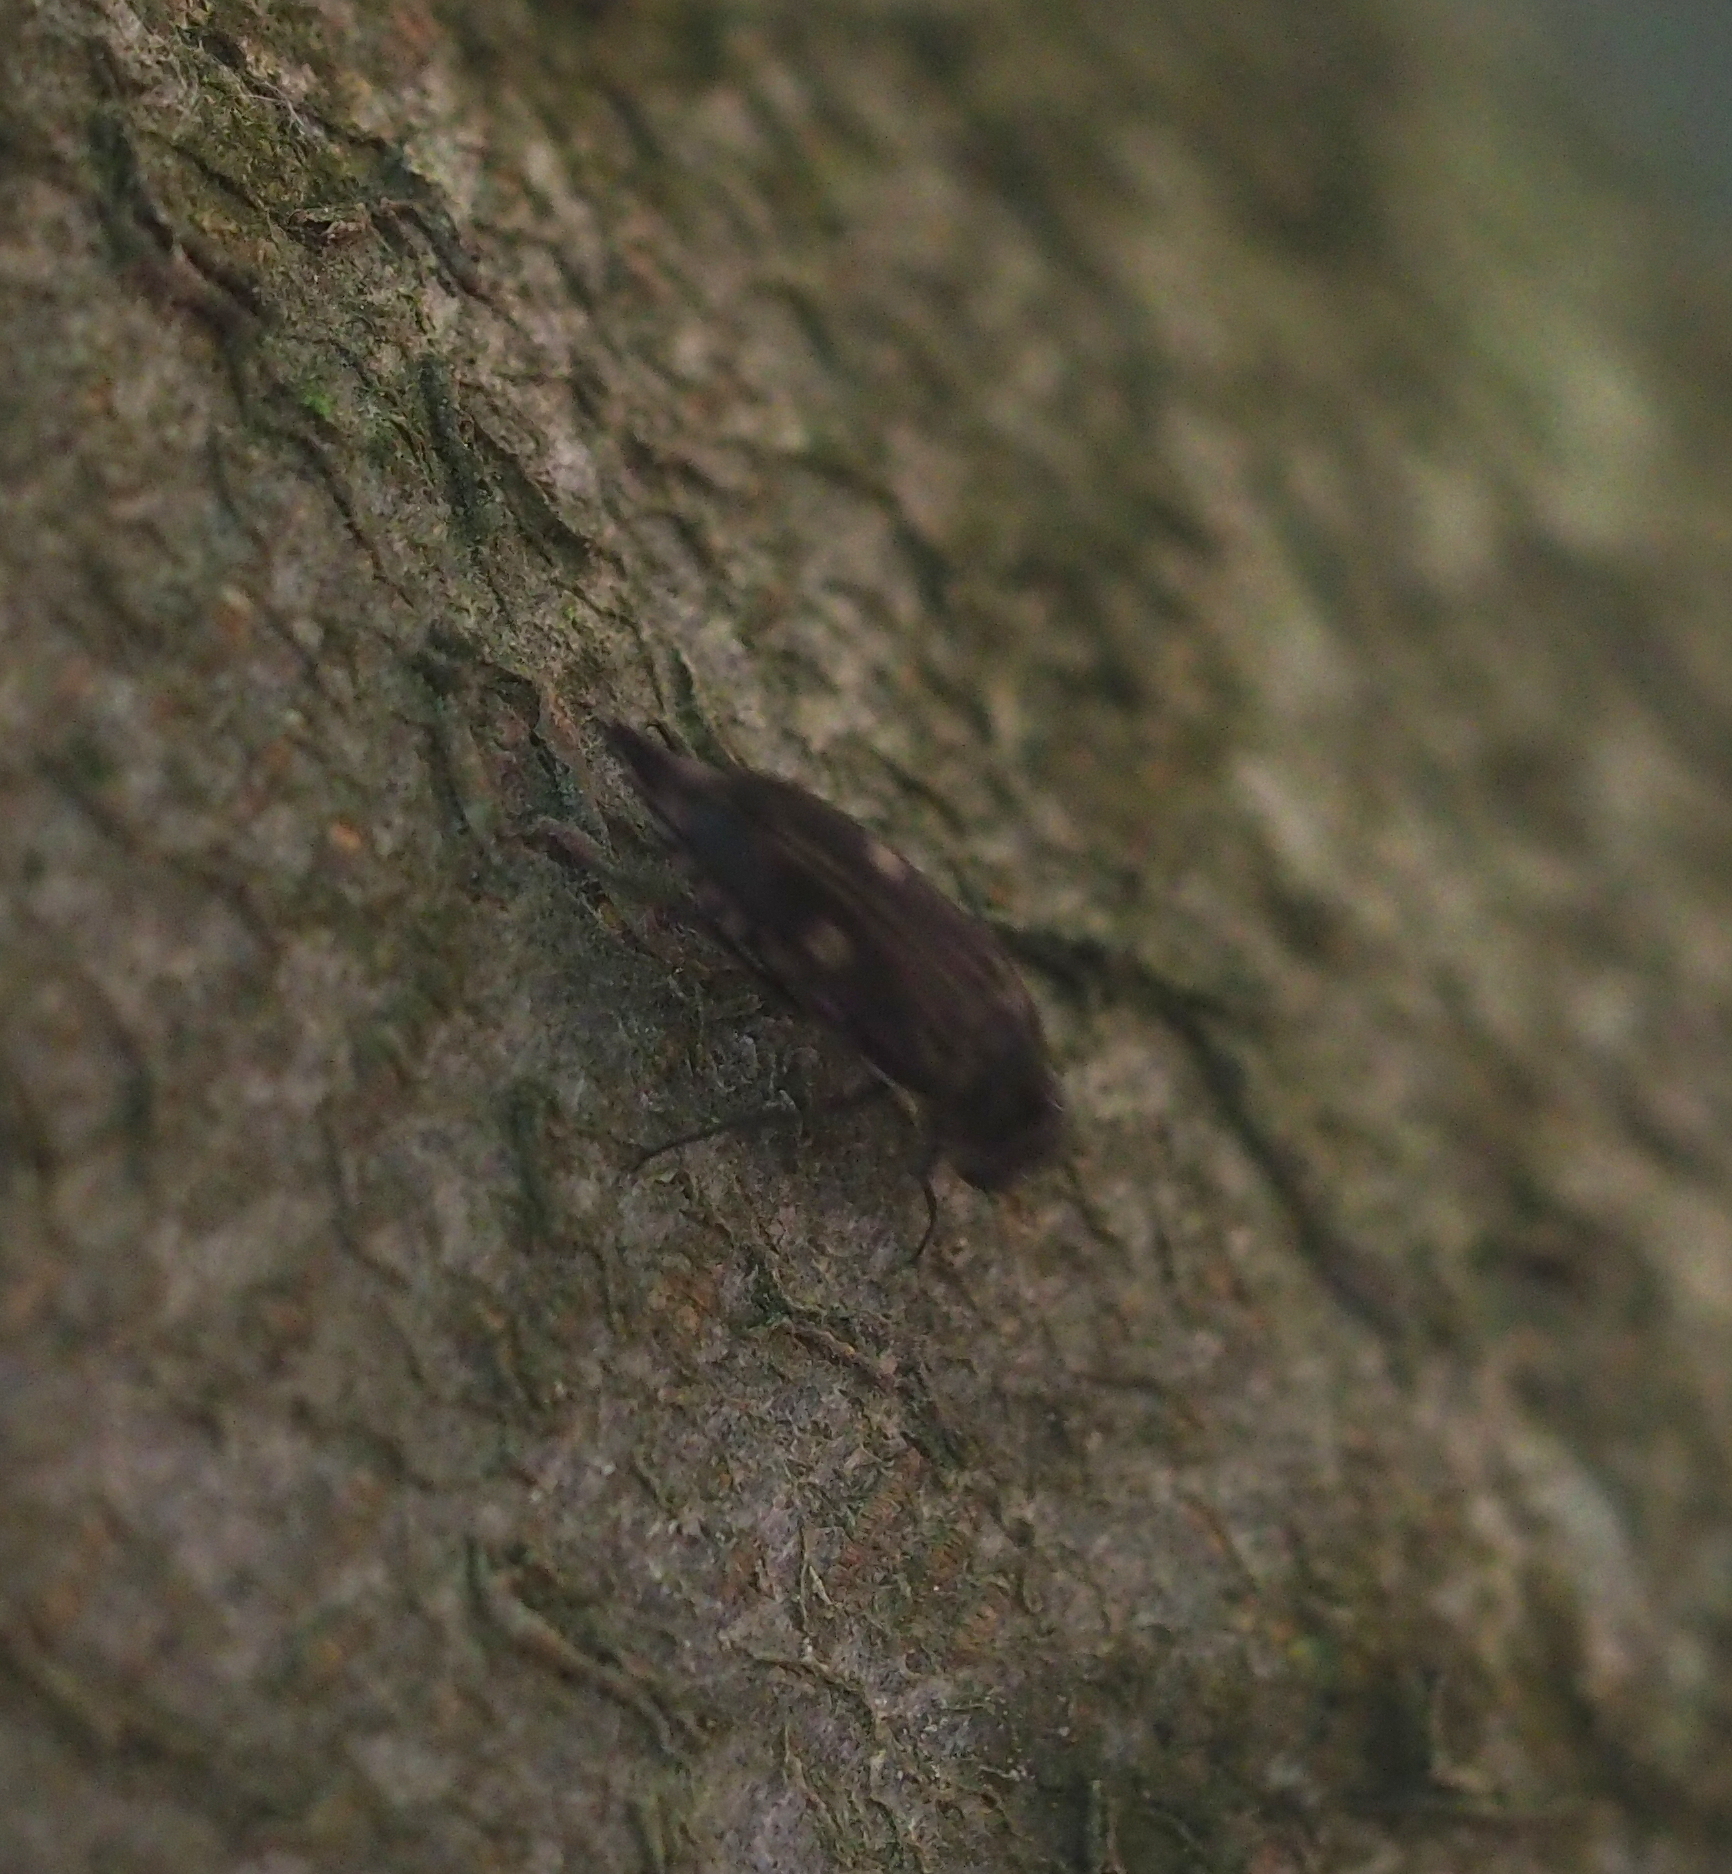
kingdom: Animalia
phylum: Arthropoda
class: Insecta
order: Coleoptera
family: Mordellidae
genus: Tomoxia
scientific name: Tomoxia bucephala
